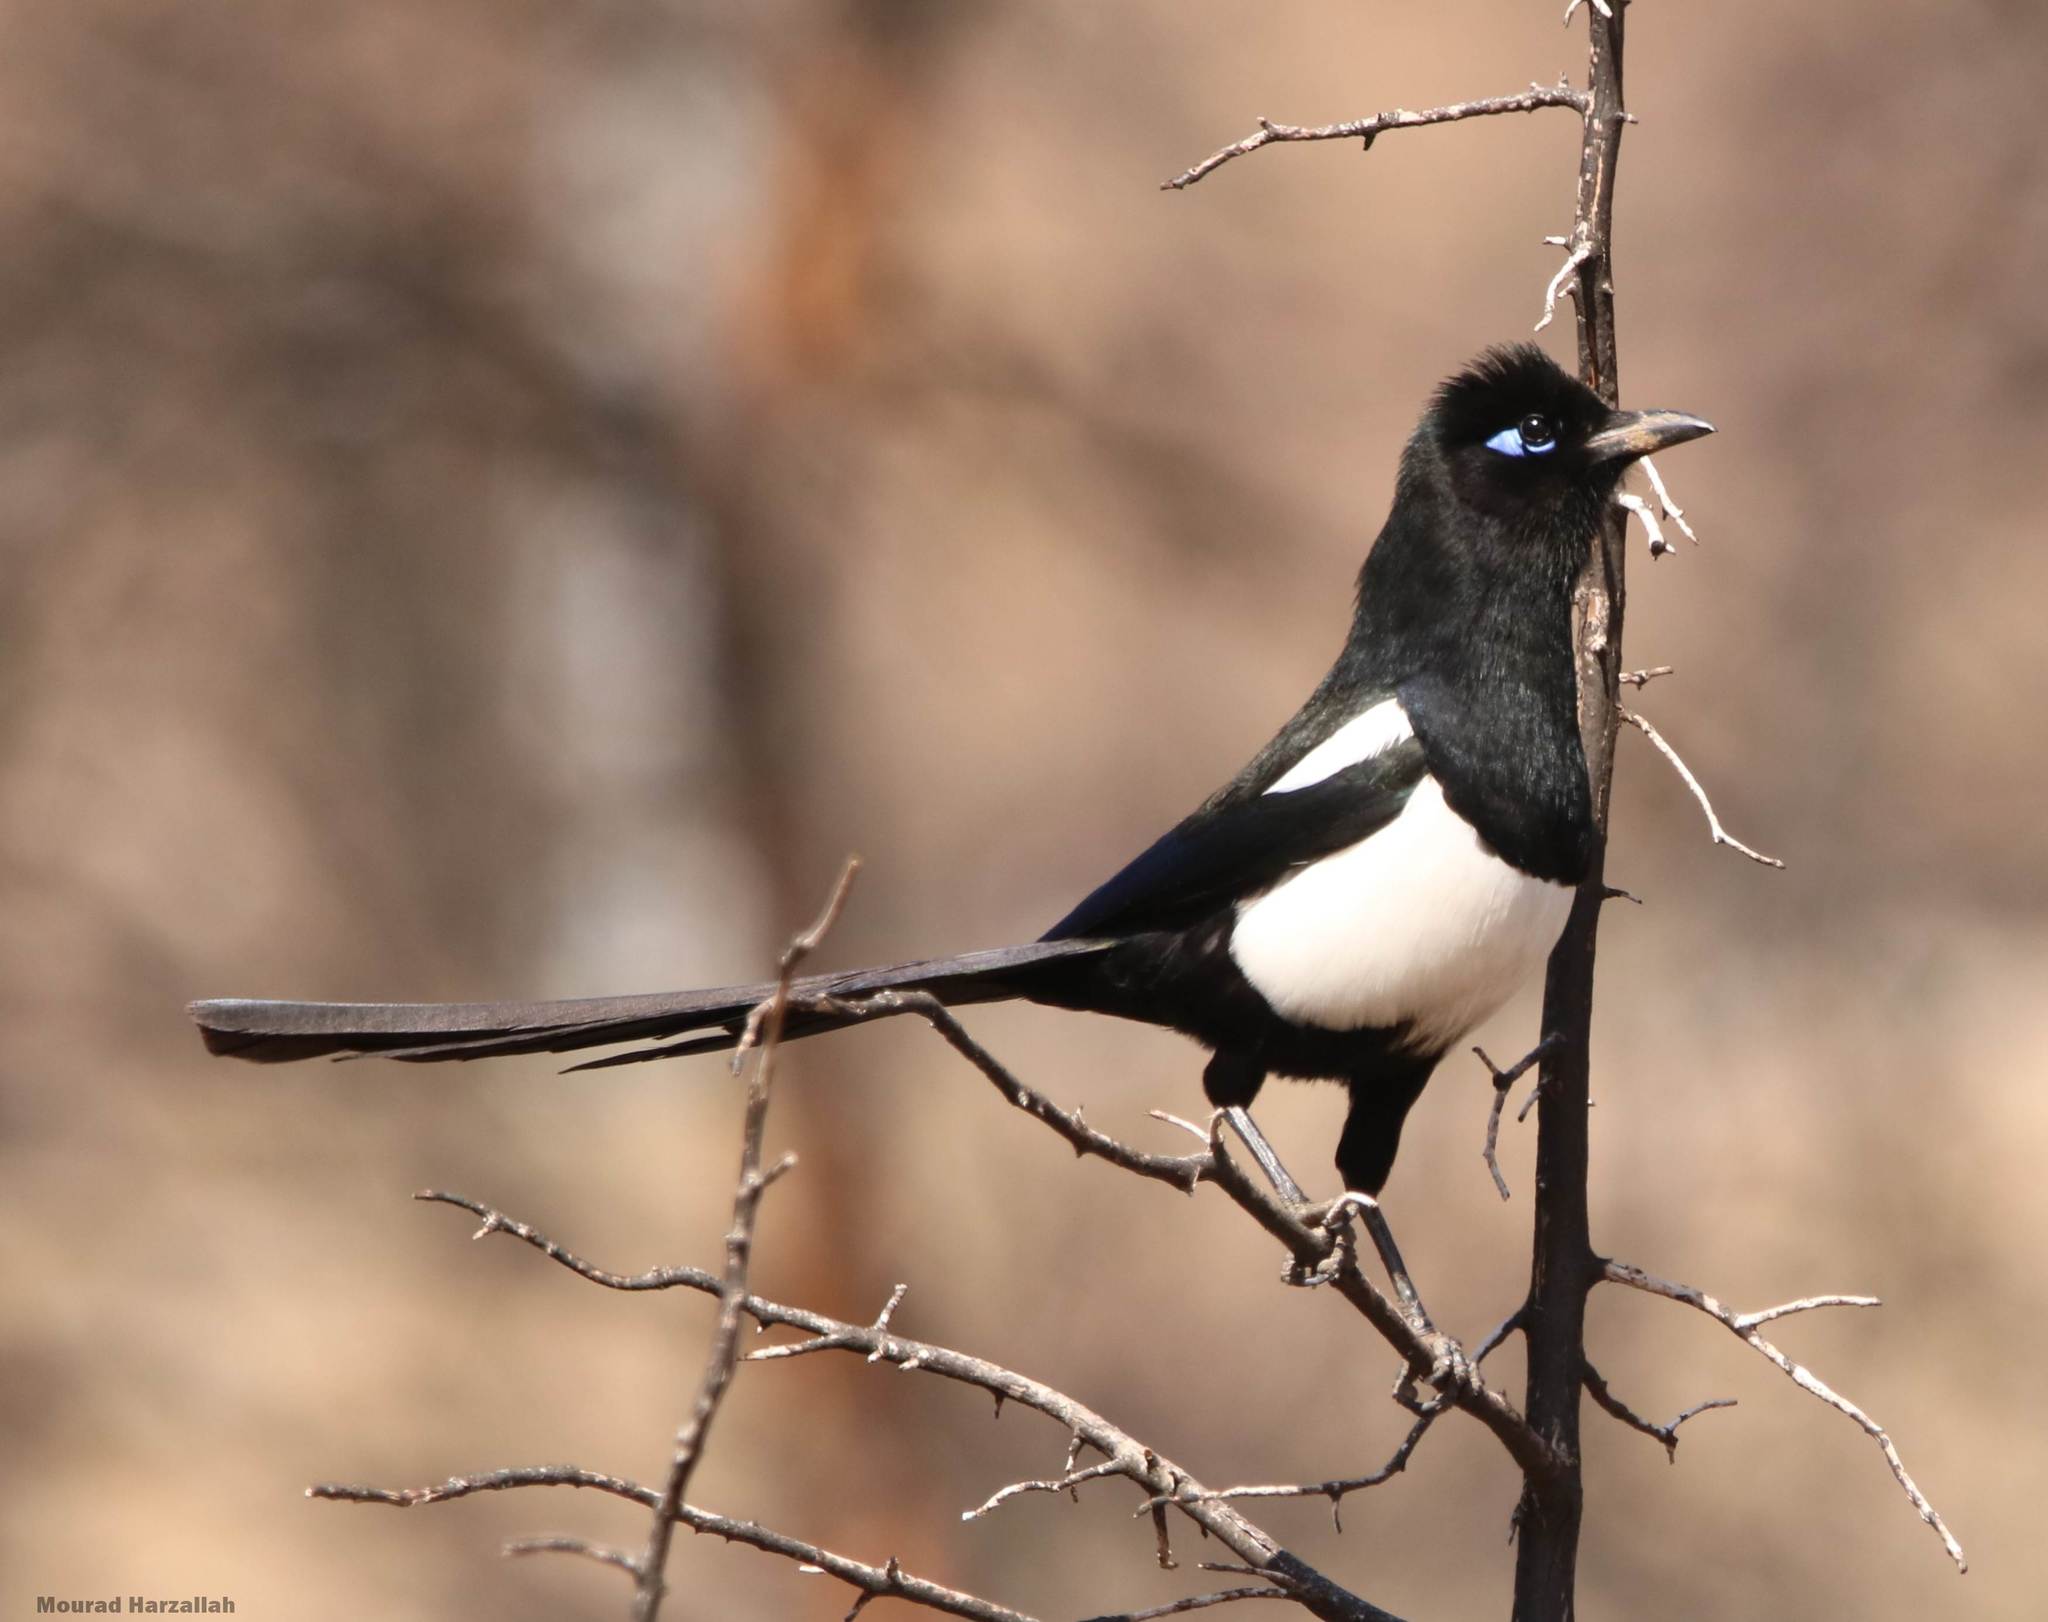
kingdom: Animalia
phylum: Chordata
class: Aves
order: Passeriformes
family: Corvidae
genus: Pica
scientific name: Pica mauritanica
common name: Maghreb magpie
